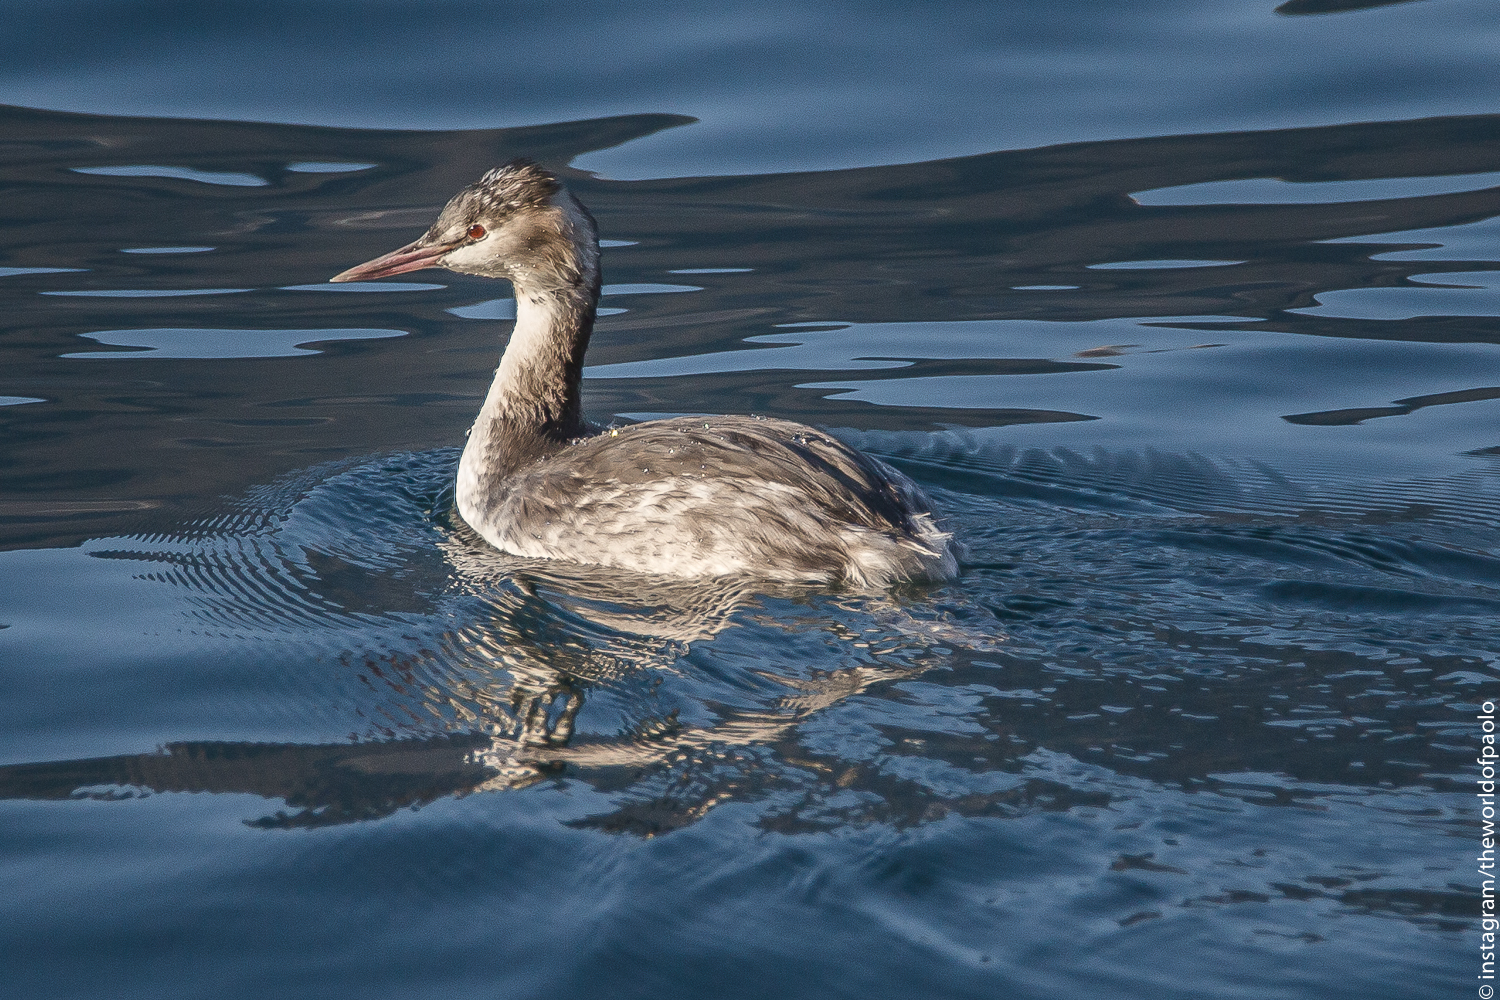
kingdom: Animalia
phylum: Chordata
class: Aves
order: Podicipediformes
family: Podicipedidae
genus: Podiceps
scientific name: Podiceps cristatus
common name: Great crested grebe
